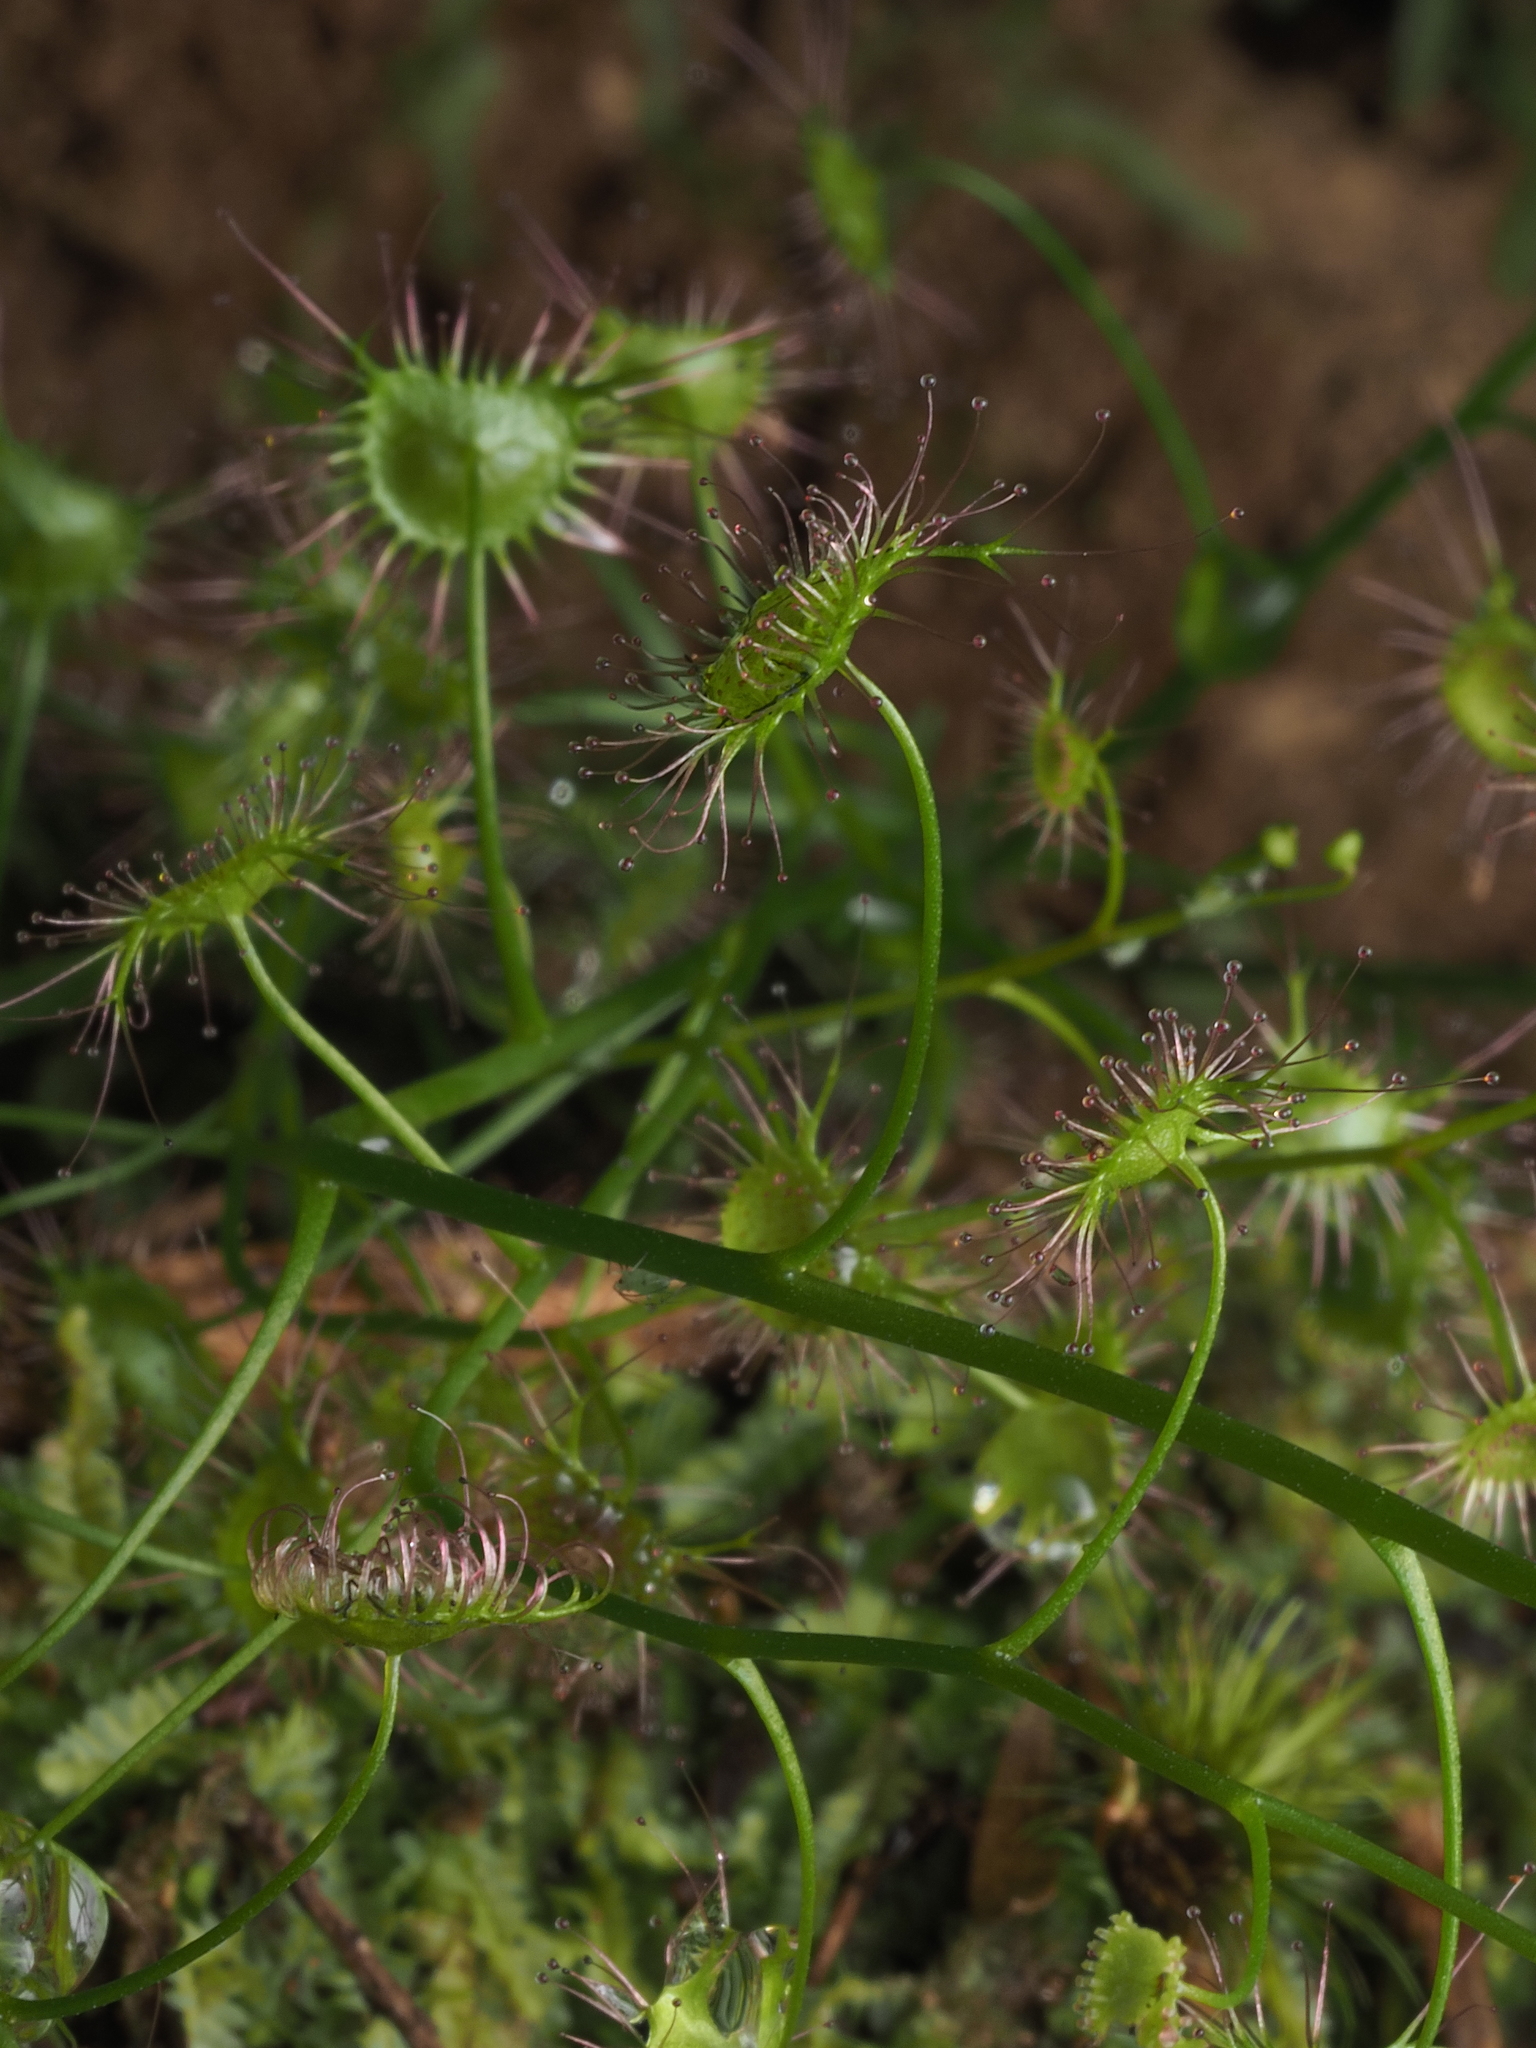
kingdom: Plantae
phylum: Tracheophyta
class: Magnoliopsida
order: Caryophyllales
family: Droseraceae
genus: Drosera
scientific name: Drosera peltata
